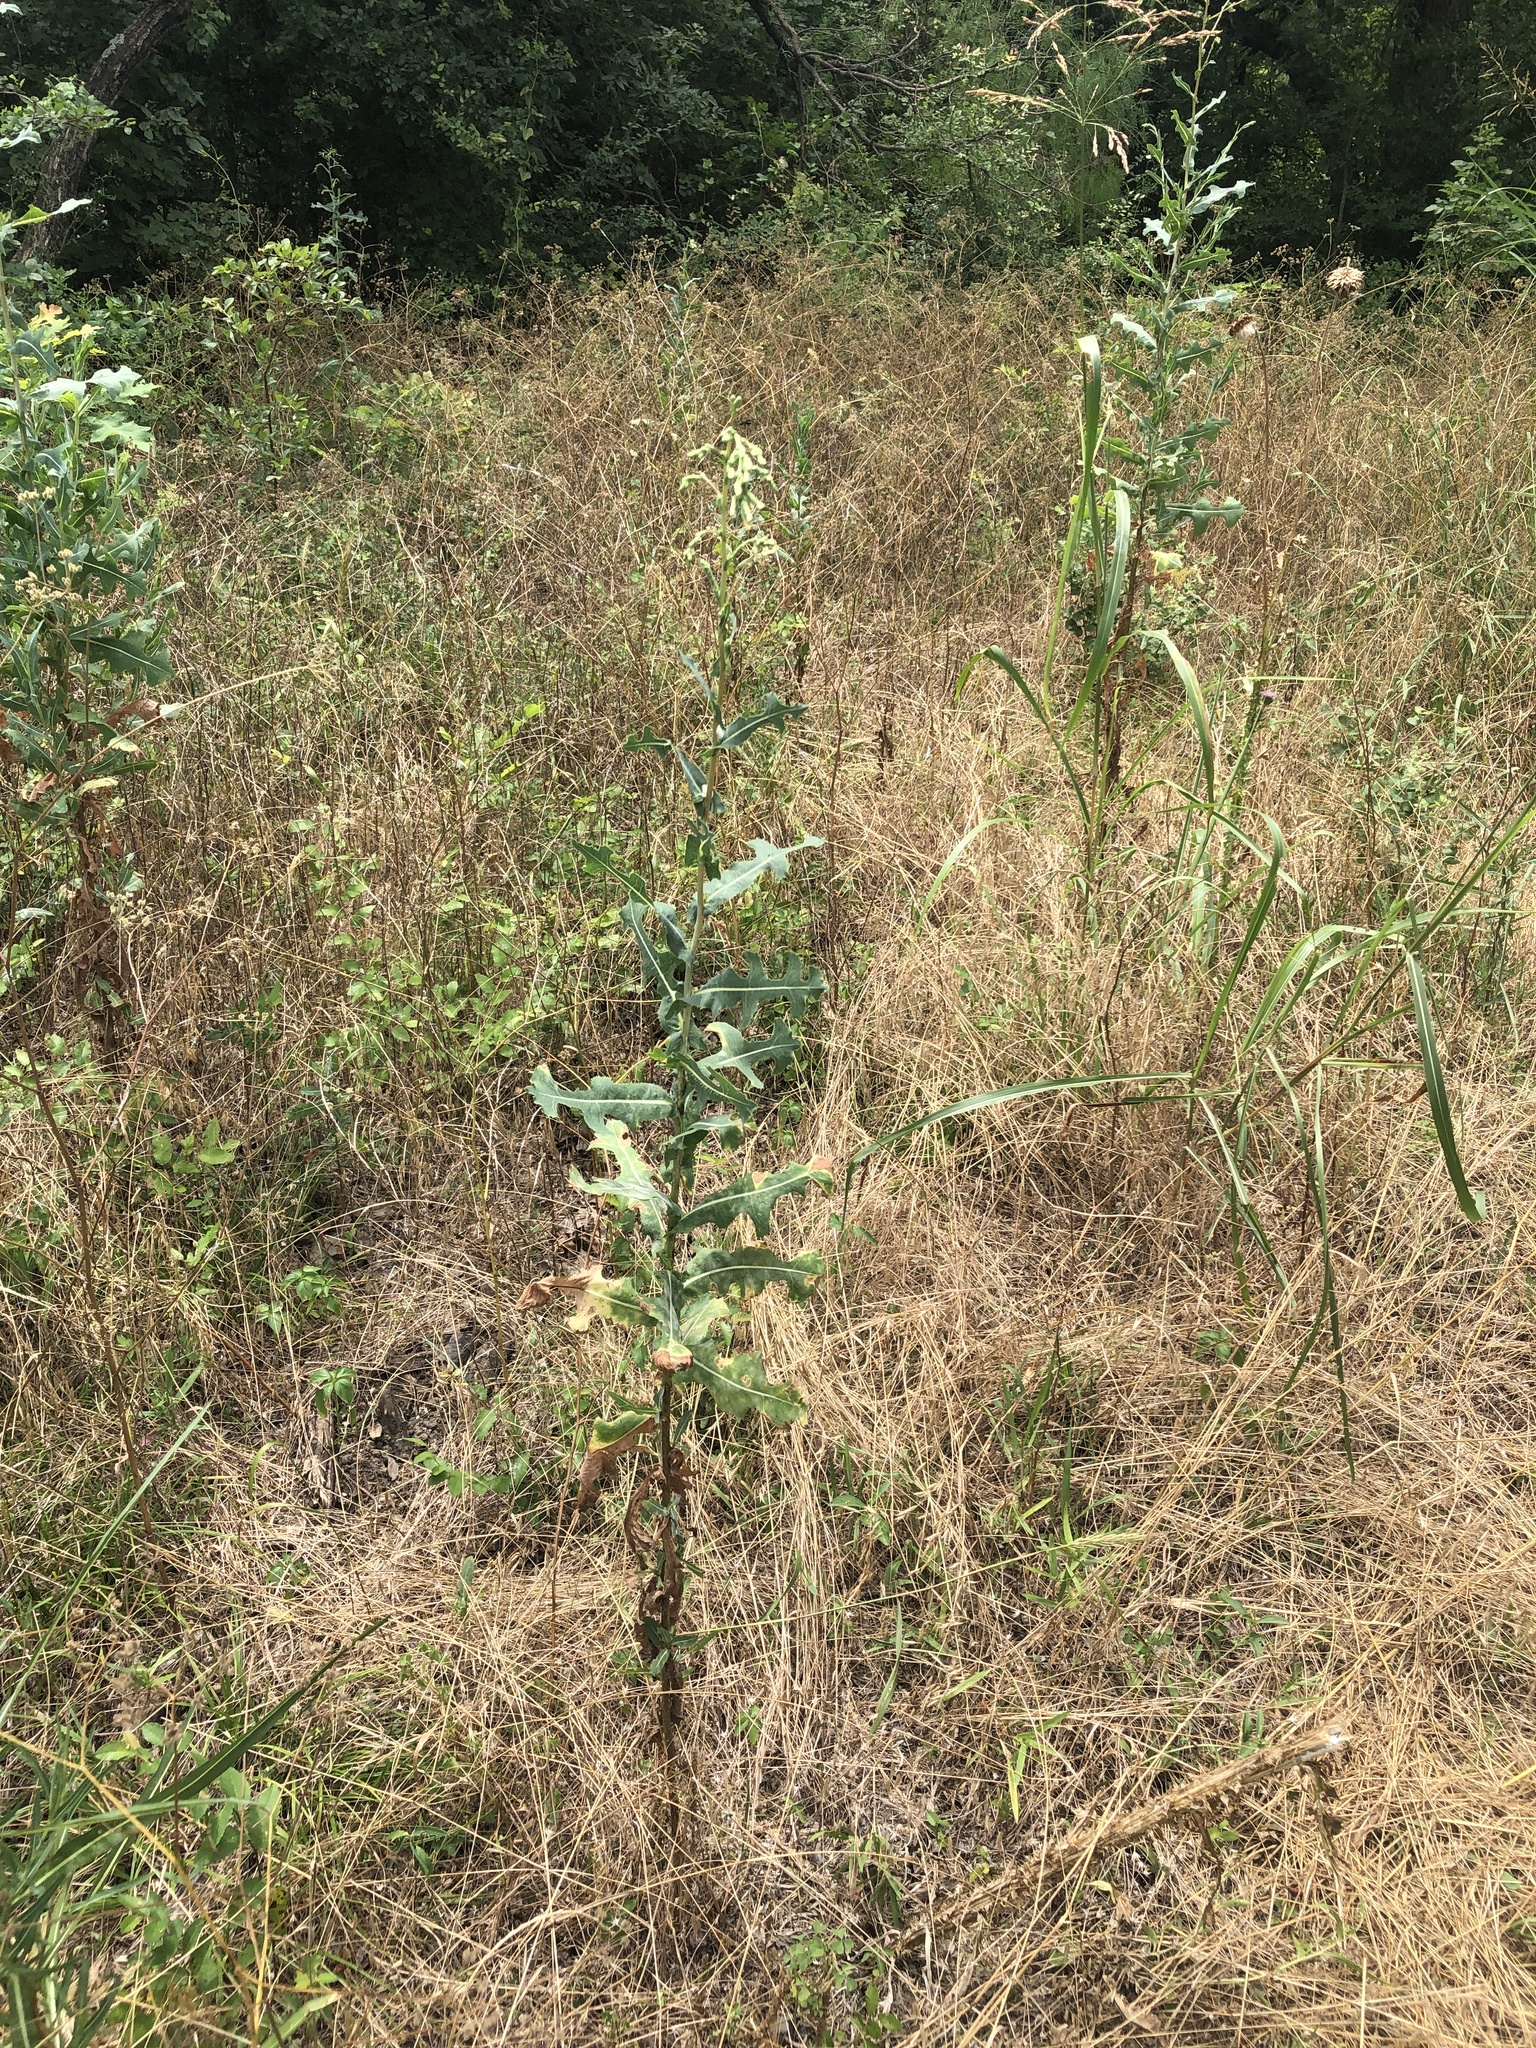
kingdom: Plantae
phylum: Tracheophyta
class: Magnoliopsida
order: Asterales
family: Asteraceae
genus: Lactuca
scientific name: Lactuca serriola
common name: Prickly lettuce
